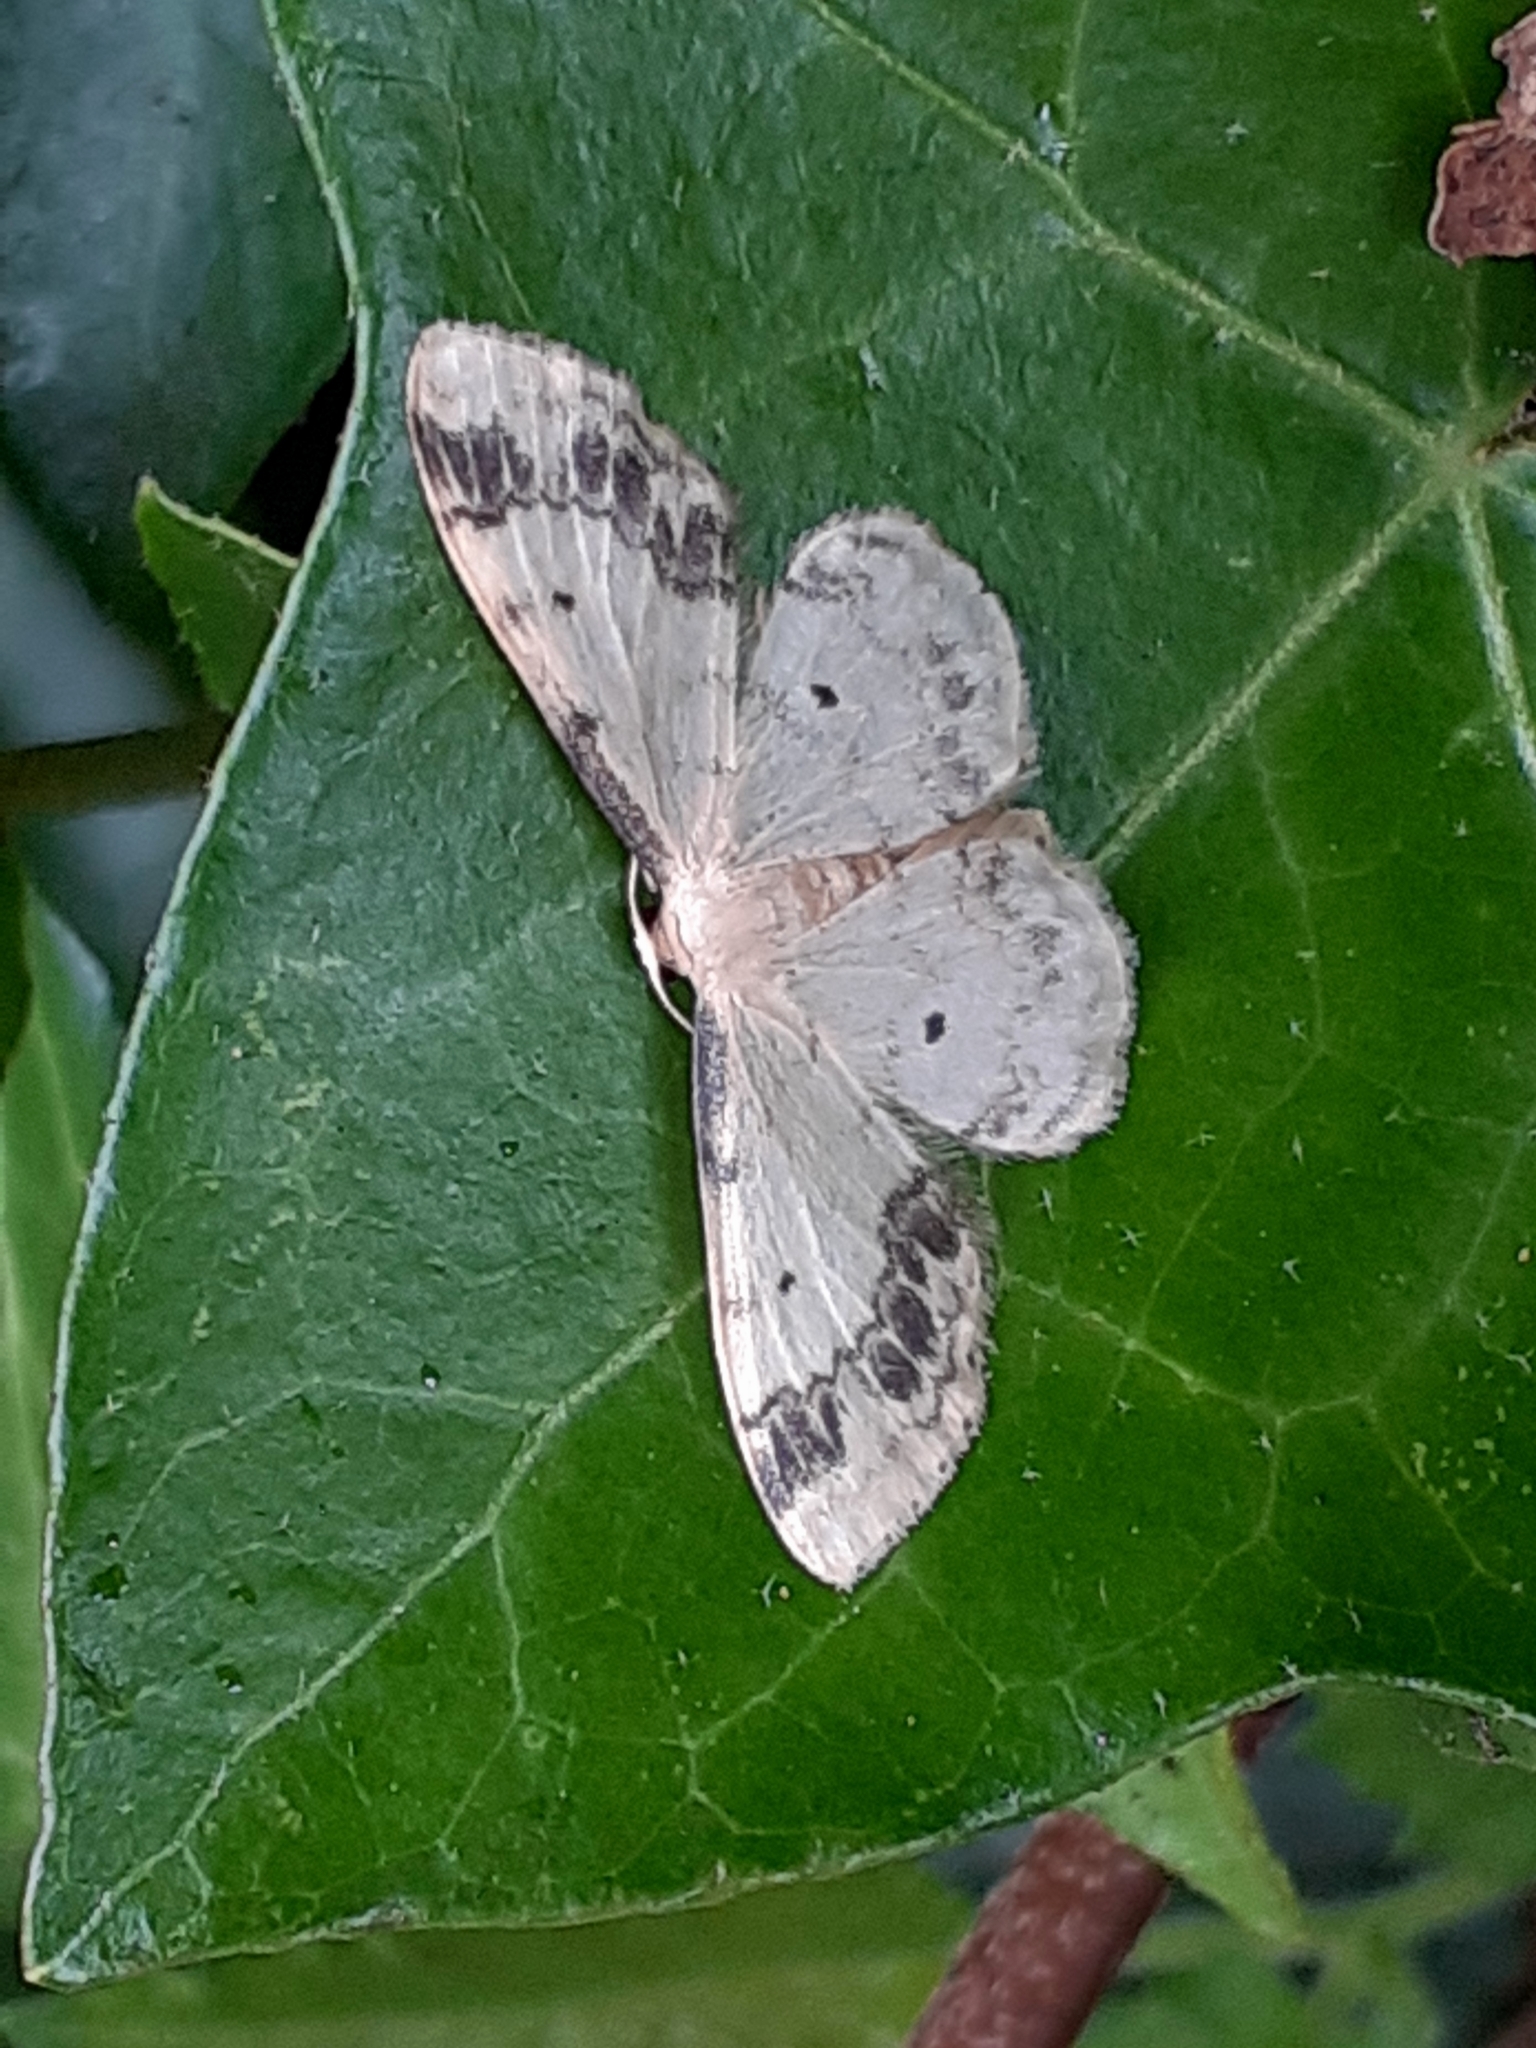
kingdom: Animalia
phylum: Arthropoda
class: Insecta
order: Lepidoptera
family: Geometridae
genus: Idaea
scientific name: Idaea trigeminata
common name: Treble brown spot
